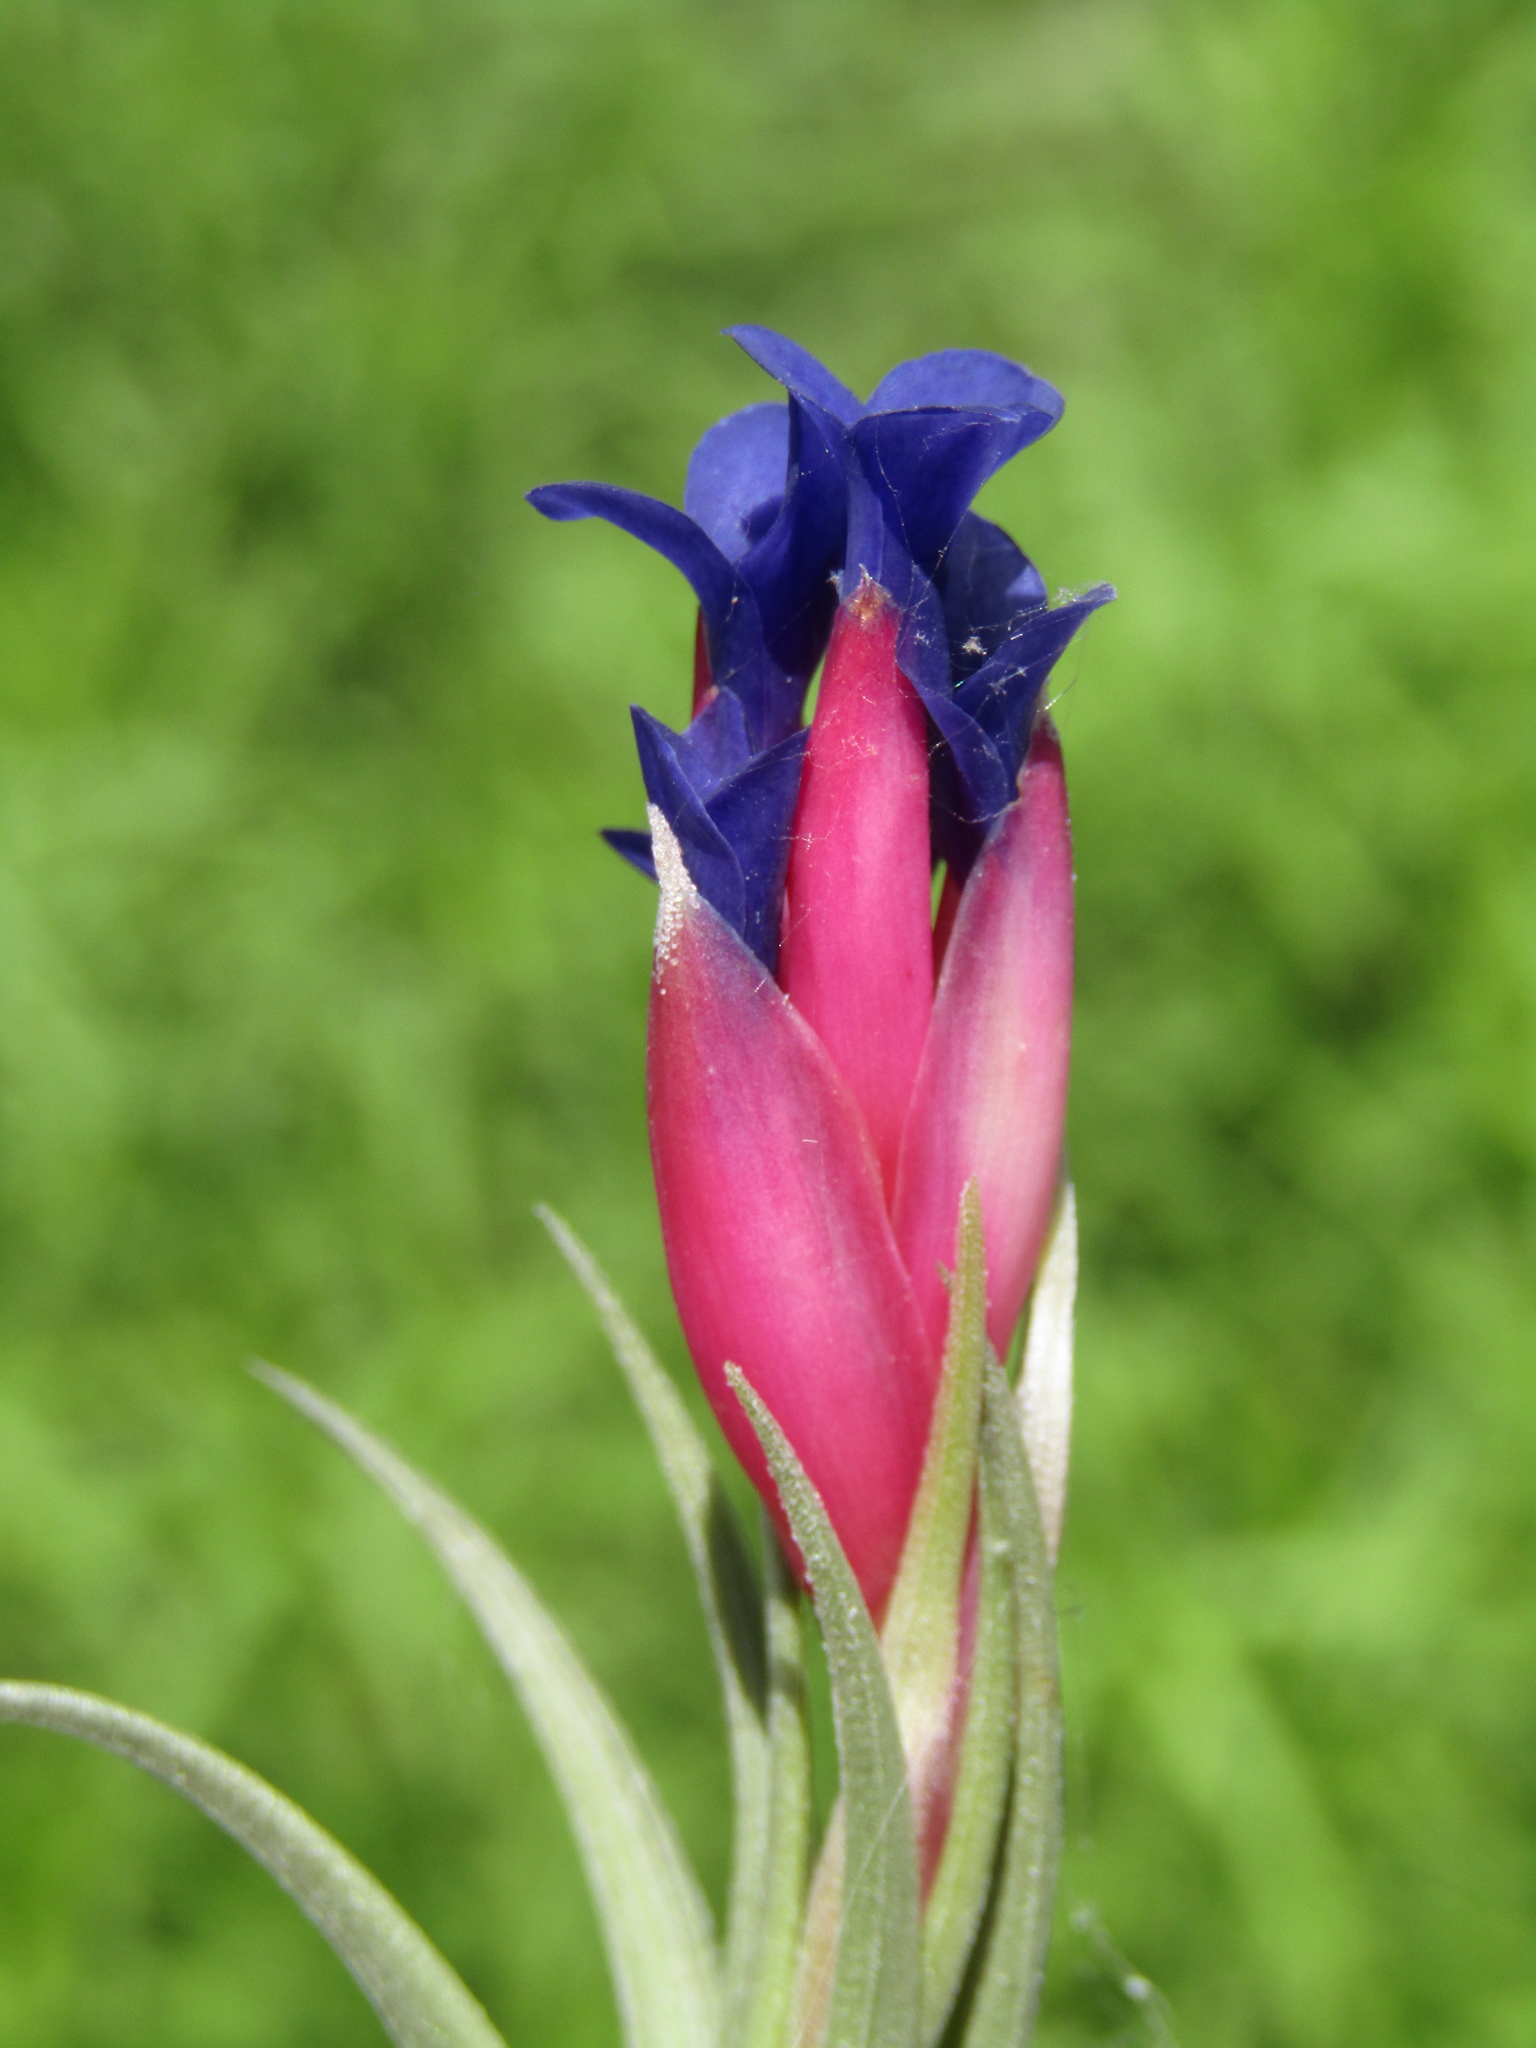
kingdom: Plantae
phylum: Tracheophyta
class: Liliopsida
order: Poales
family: Bromeliaceae
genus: Tillandsia
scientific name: Tillandsia aeranthos
